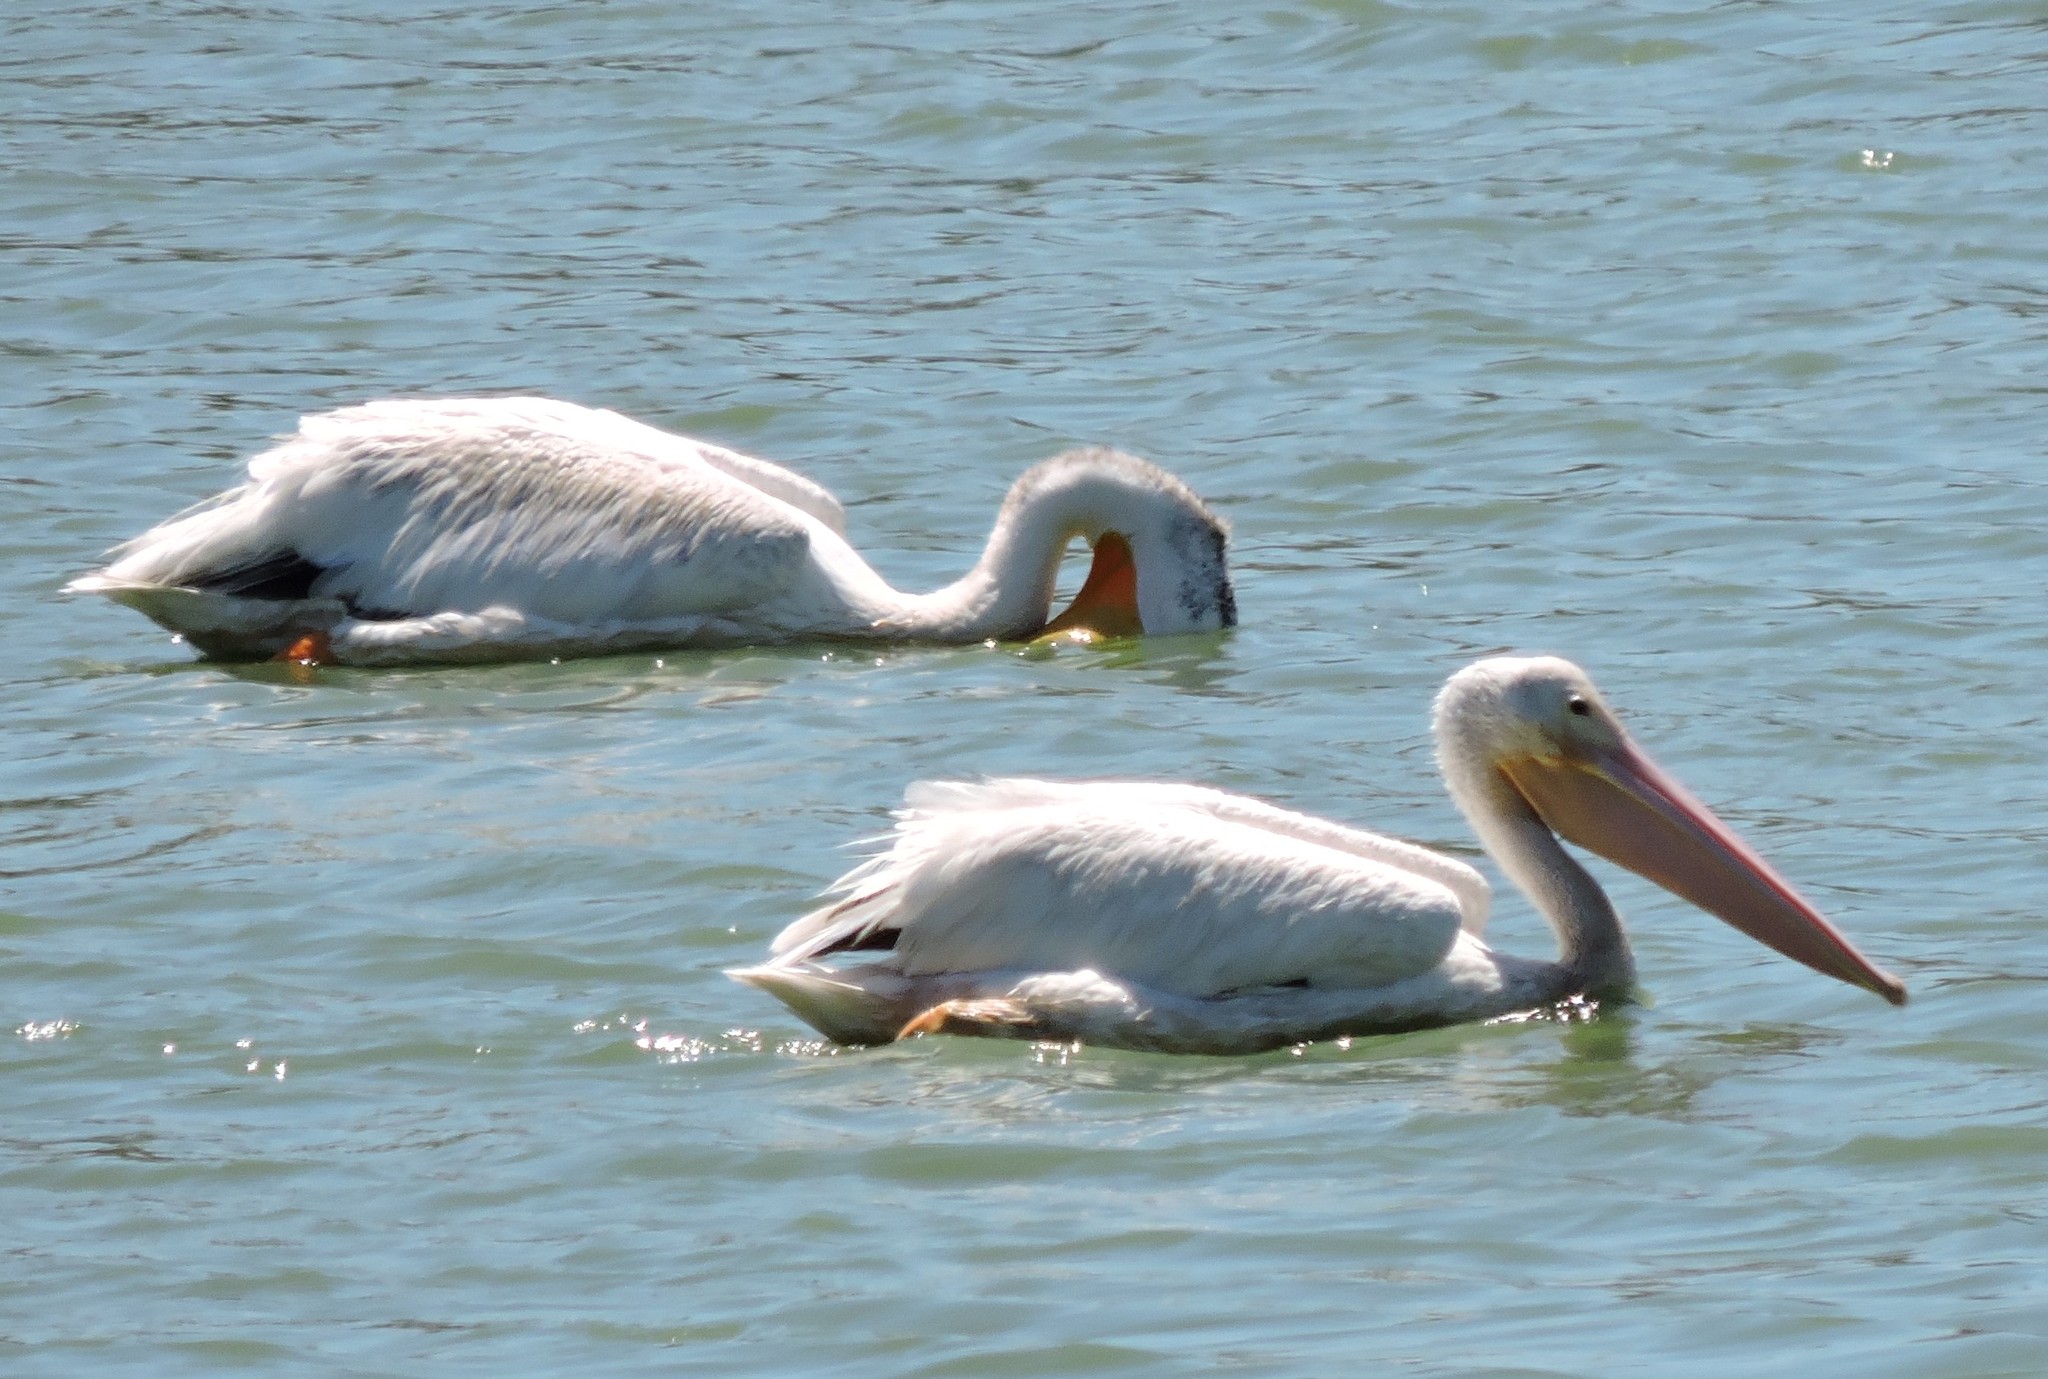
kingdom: Animalia
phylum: Chordata
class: Aves
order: Pelecaniformes
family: Pelecanidae
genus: Pelecanus
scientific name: Pelecanus erythrorhynchos
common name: American white pelican
